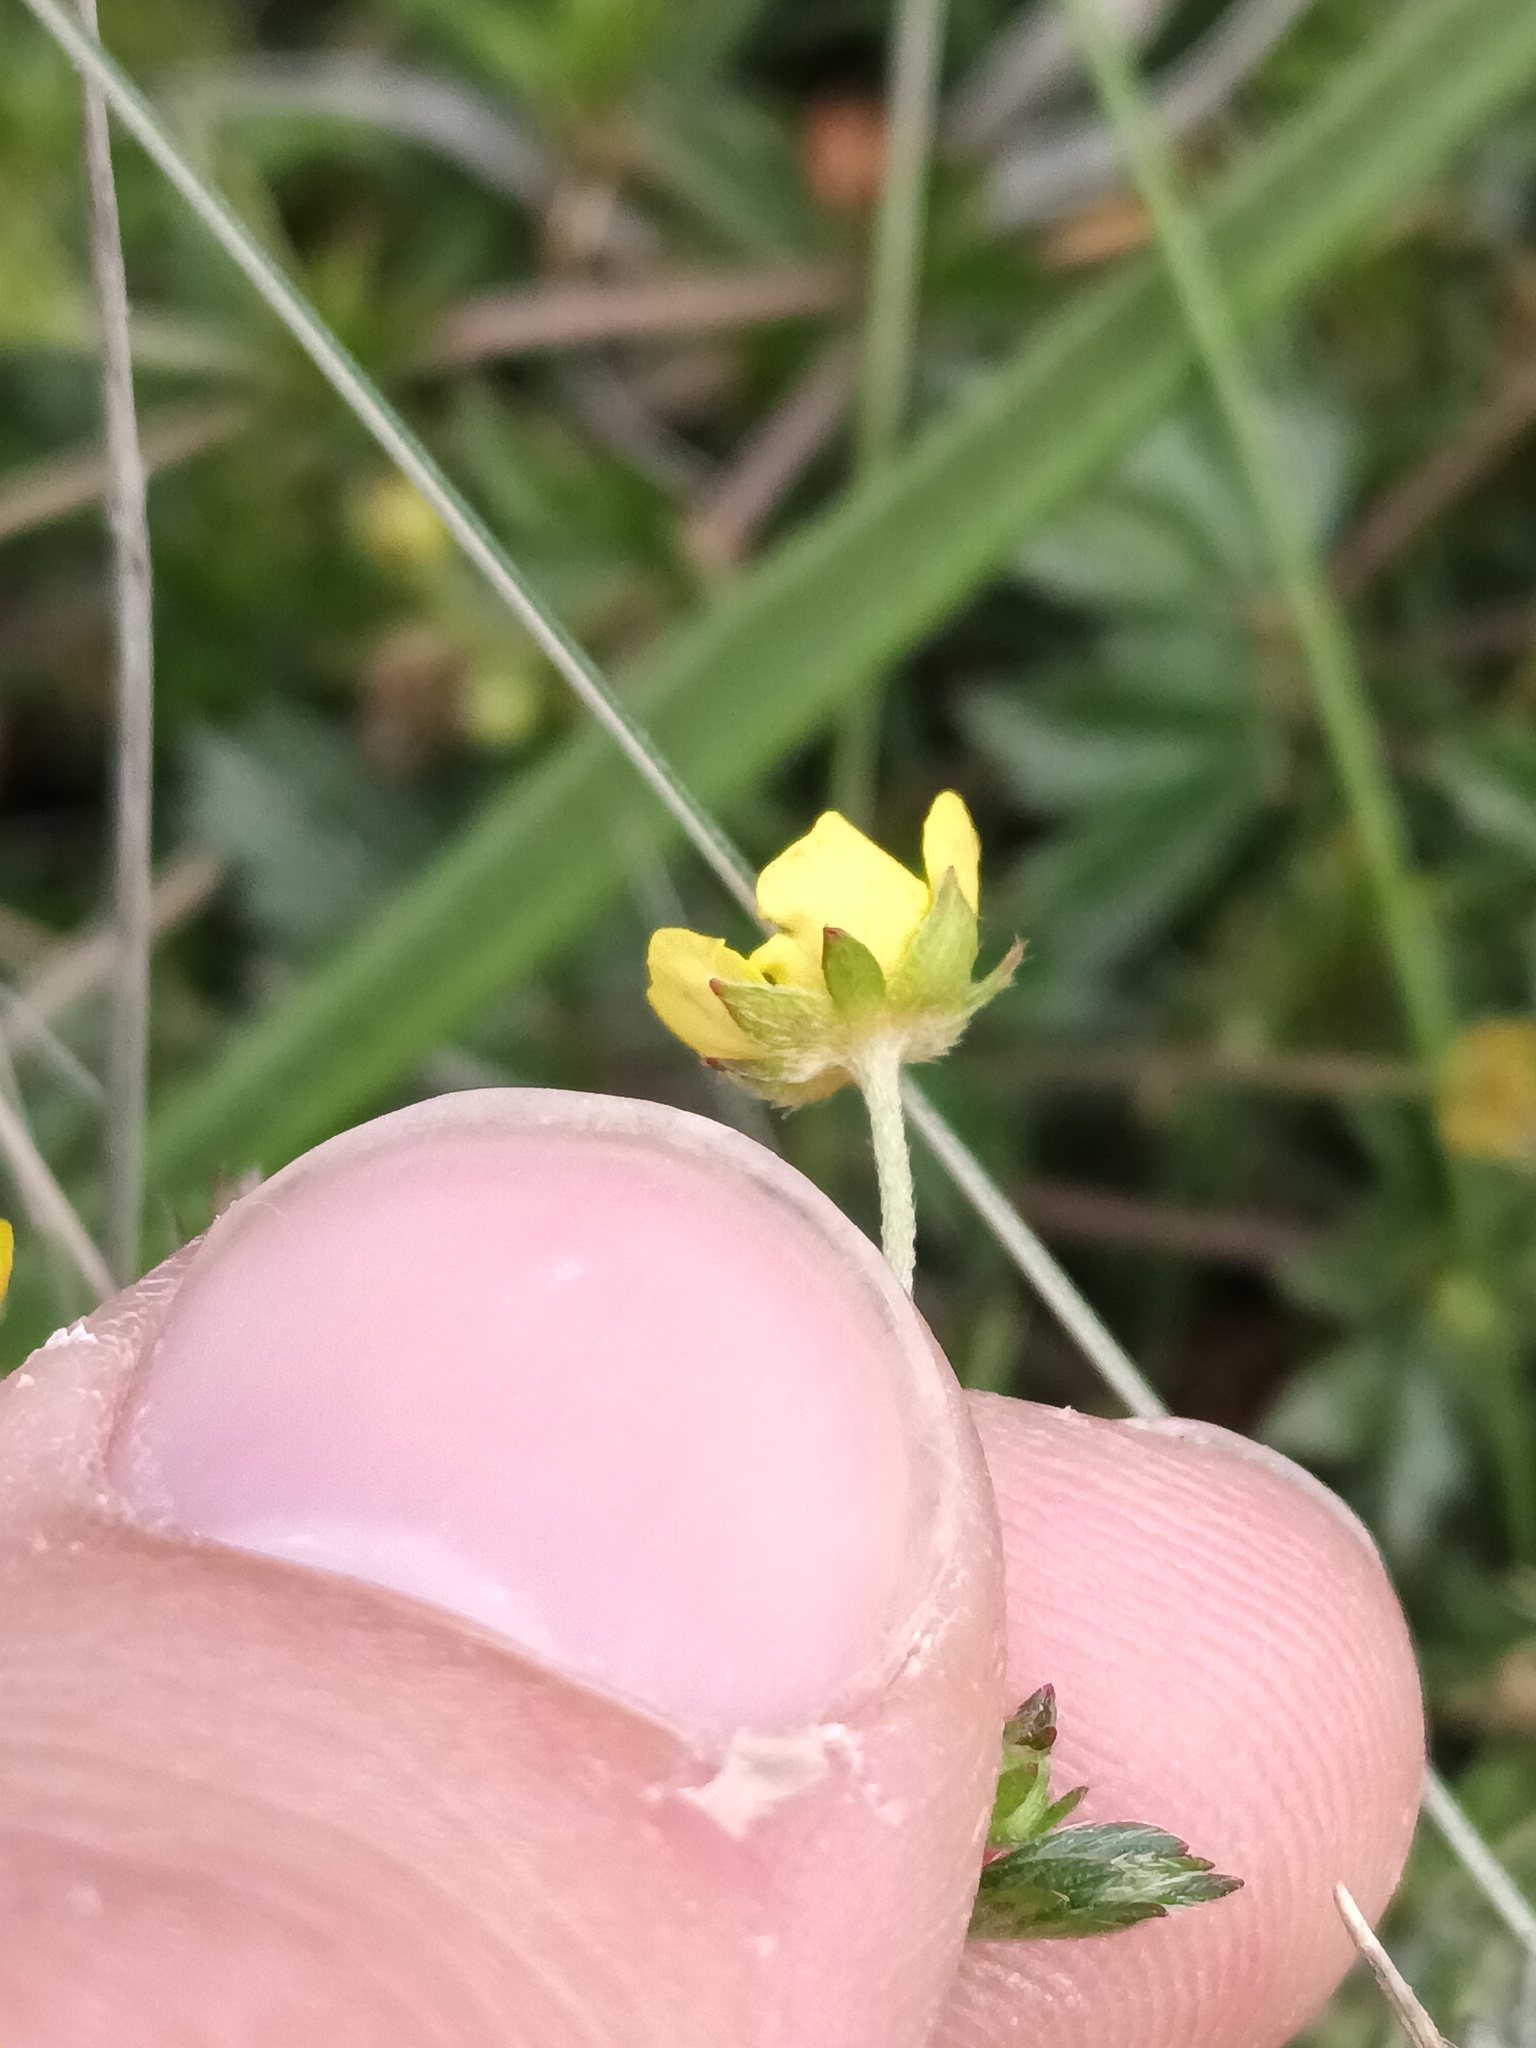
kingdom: Plantae
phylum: Tracheophyta
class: Magnoliopsida
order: Rosales
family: Rosaceae
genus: Potentilla
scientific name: Potentilla erecta
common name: Tormentil
